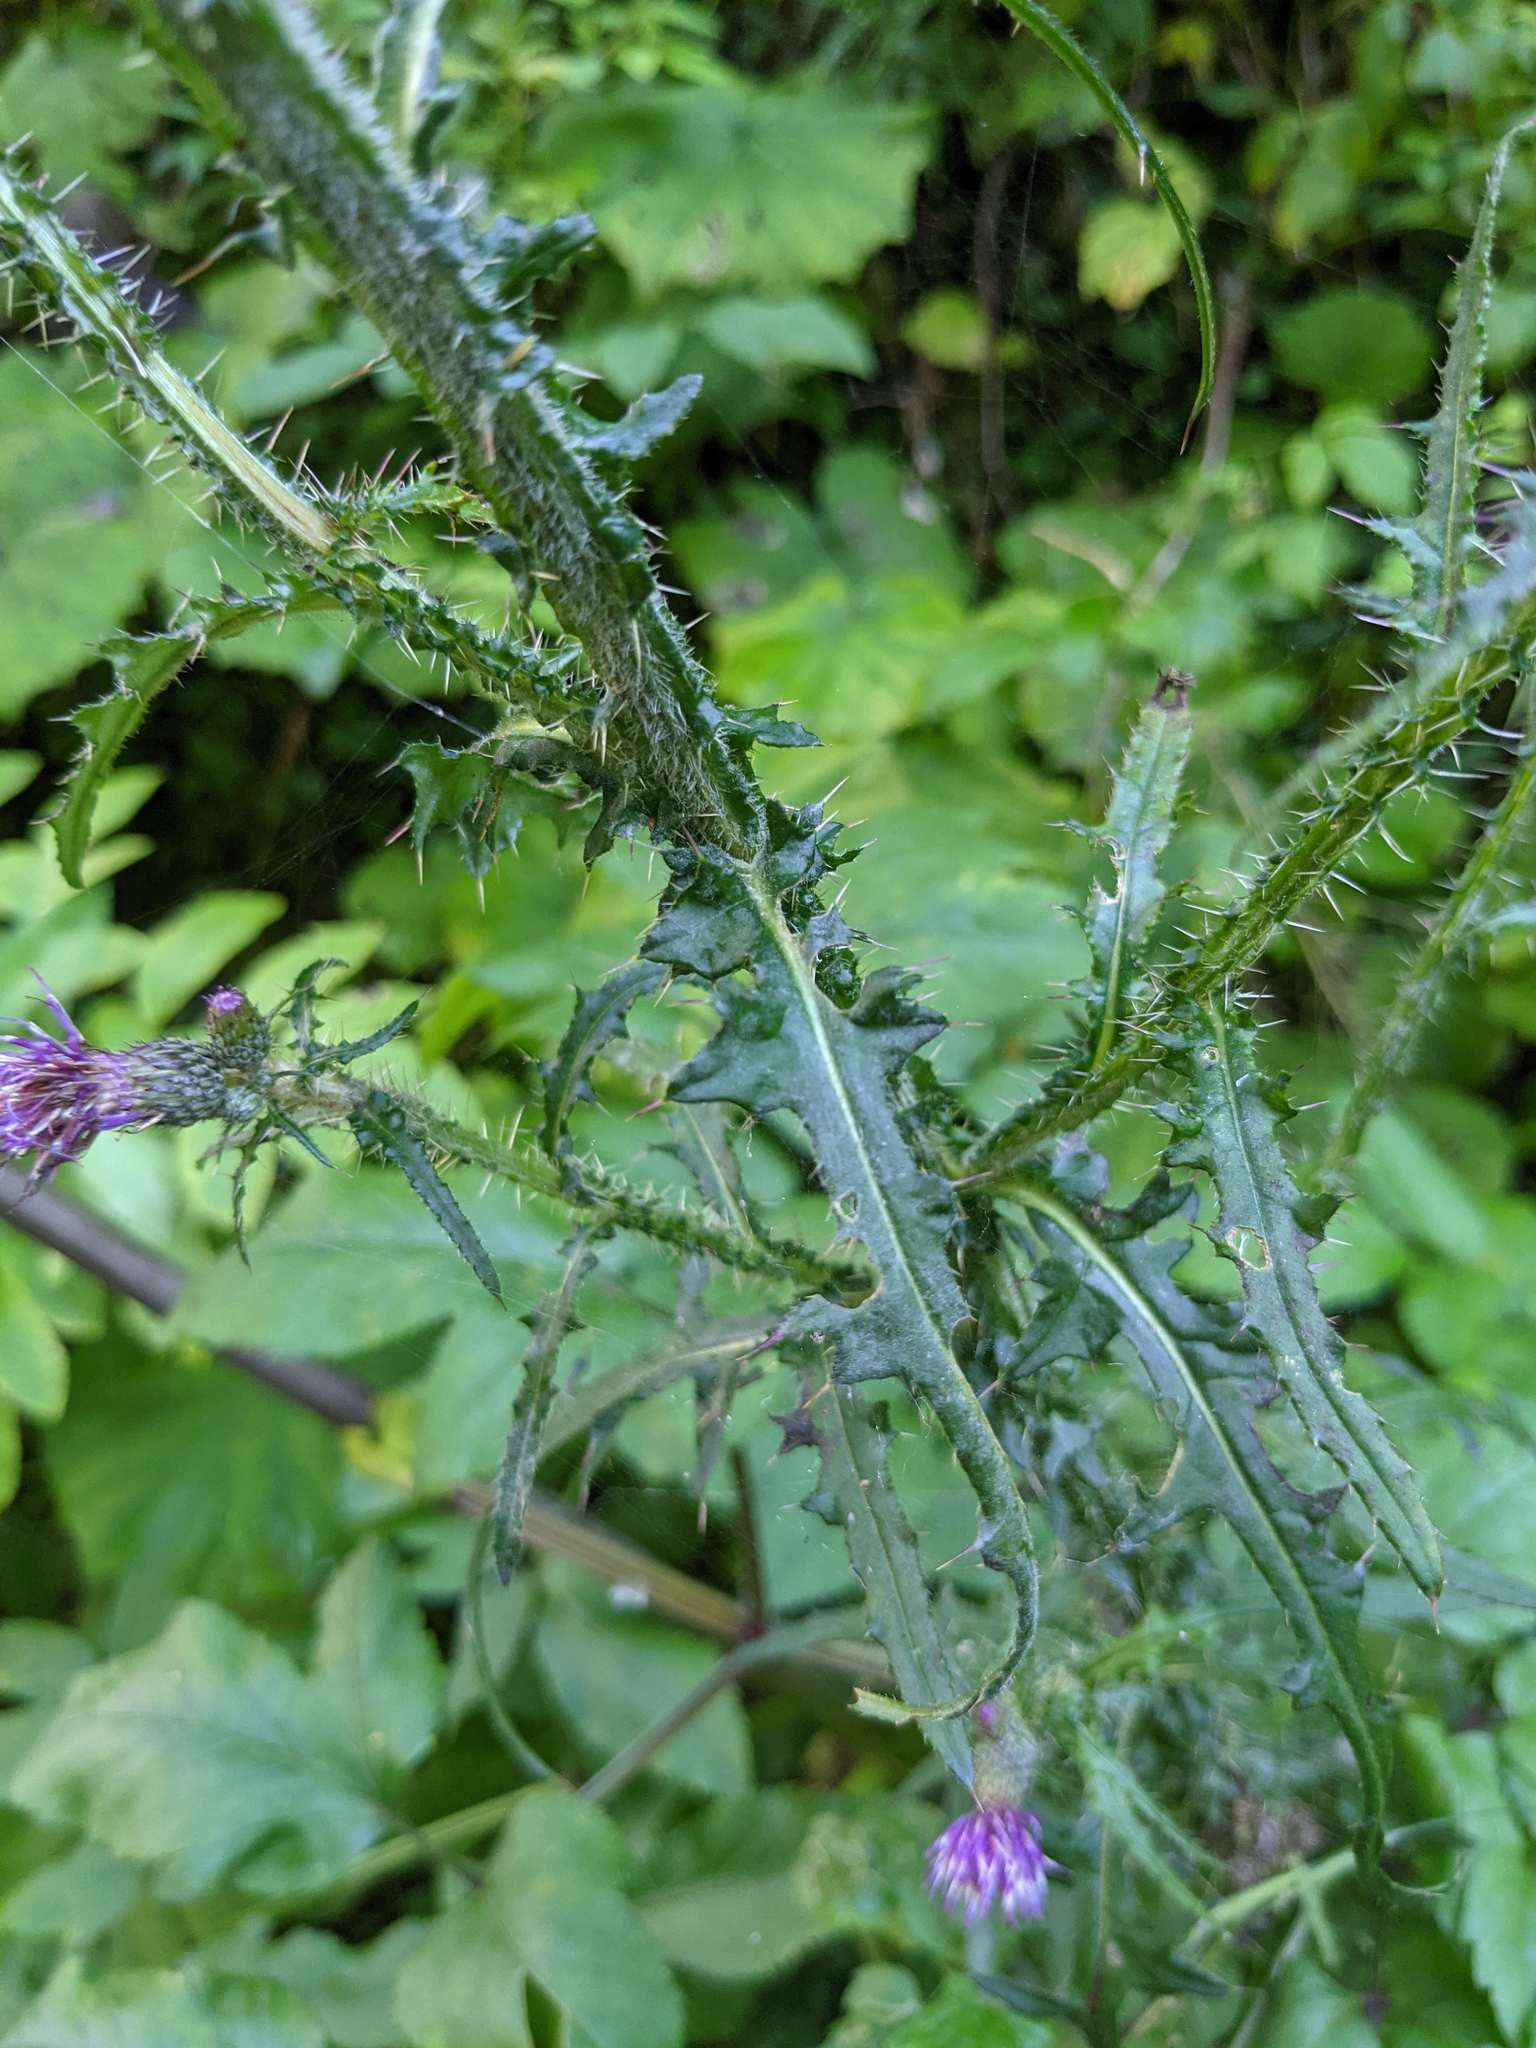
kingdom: Plantae
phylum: Tracheophyta
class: Magnoliopsida
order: Asterales
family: Asteraceae
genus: Cirsium
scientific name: Cirsium palustre
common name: Marsh thistle
